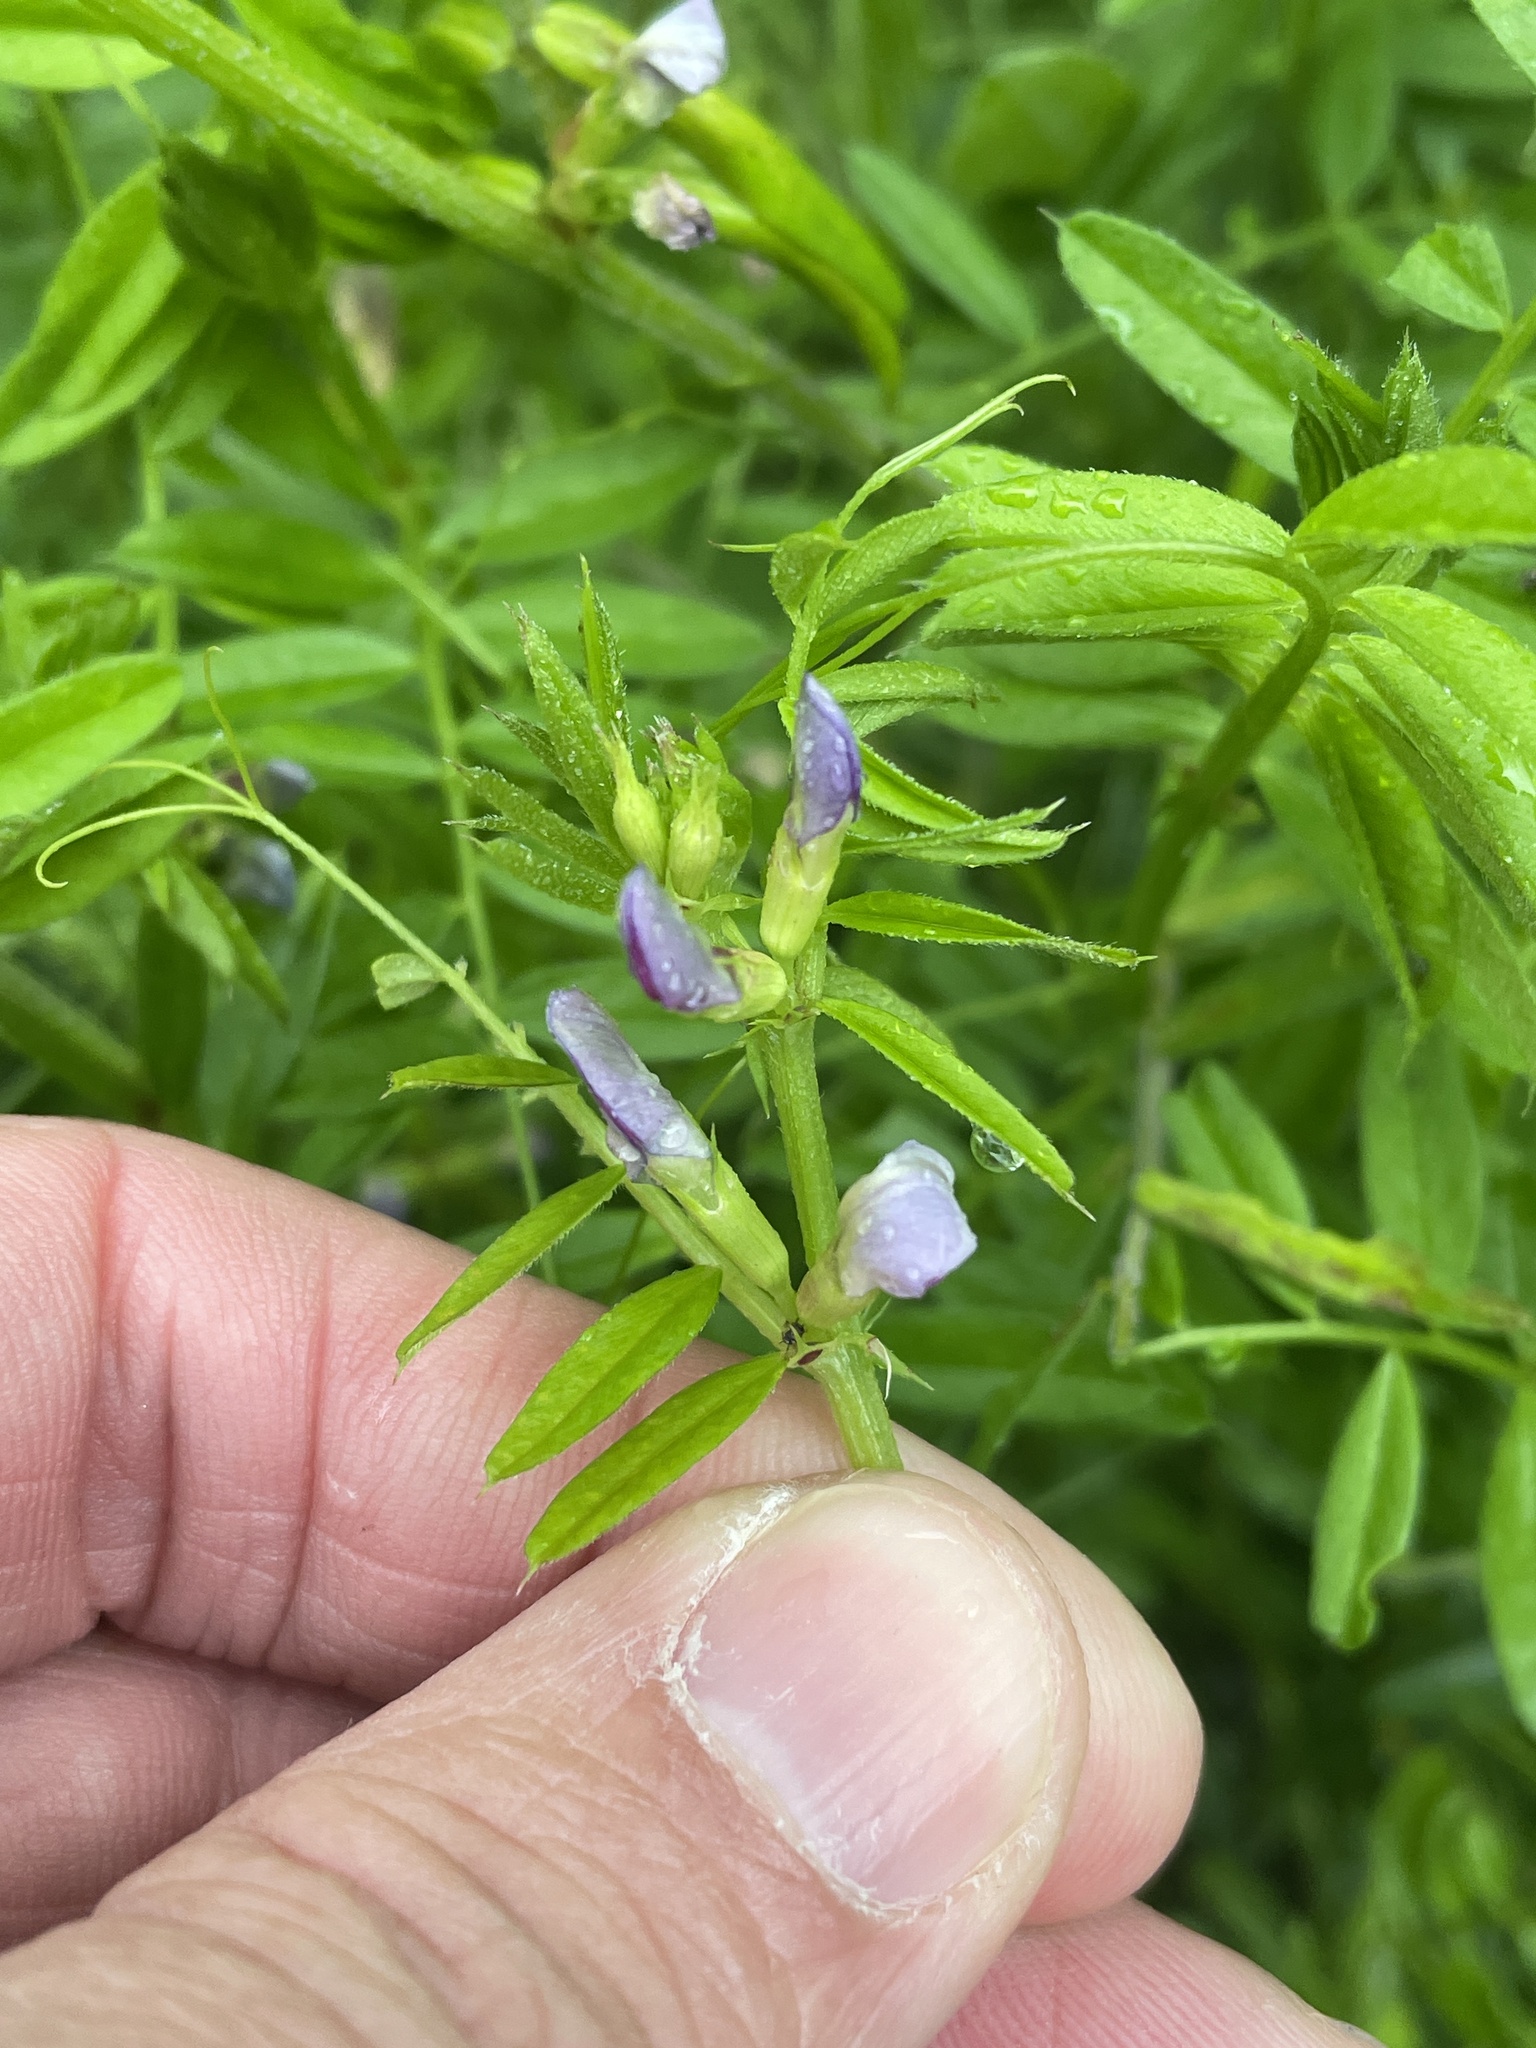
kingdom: Plantae
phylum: Tracheophyta
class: Magnoliopsida
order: Fabales
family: Fabaceae
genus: Vicia
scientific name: Vicia sativa
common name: Garden vetch
